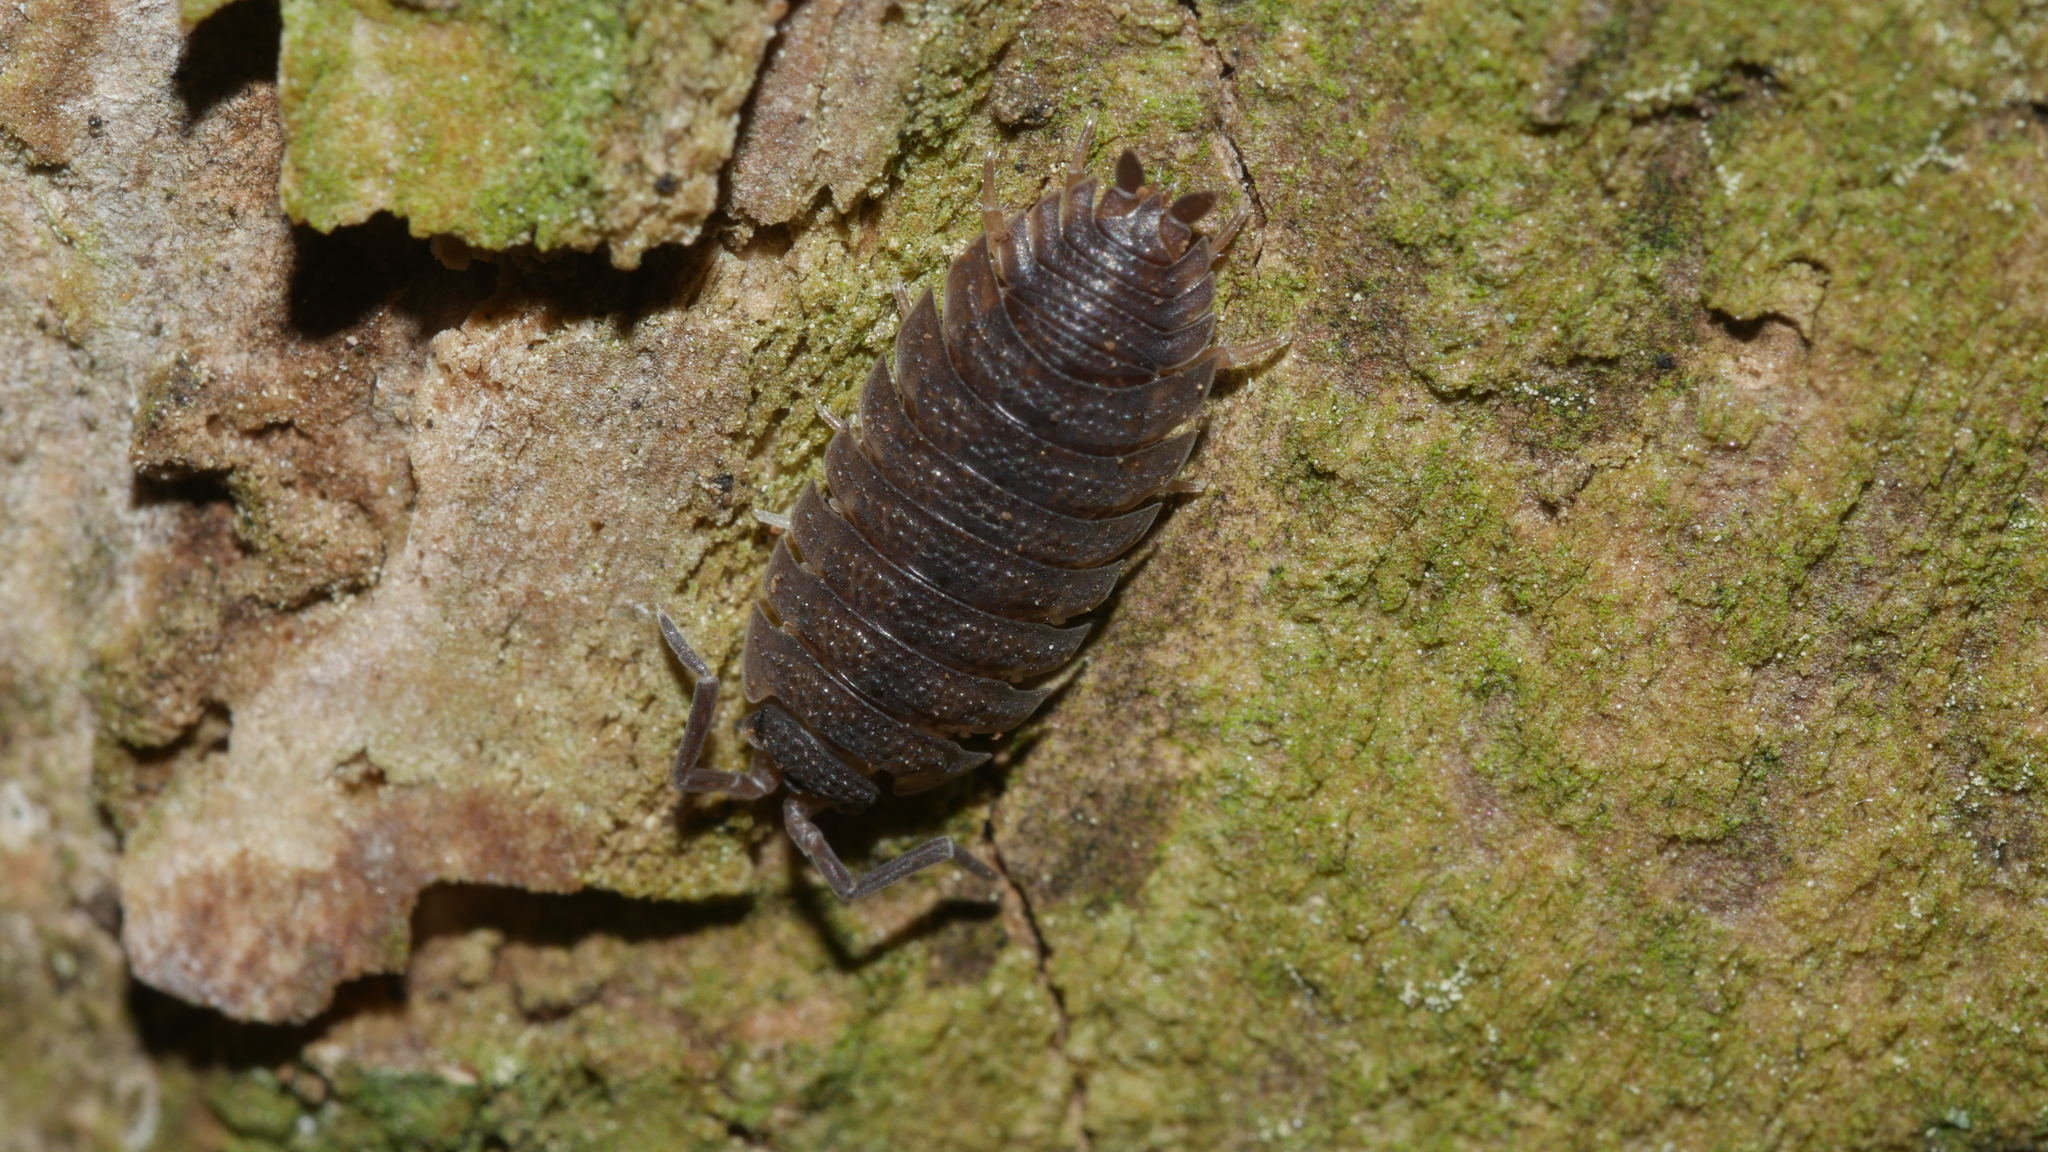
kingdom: Animalia
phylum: Arthropoda
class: Malacostraca
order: Isopoda
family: Porcellionidae
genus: Porcellio
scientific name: Porcellio scaber
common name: Common rough woodlouse
